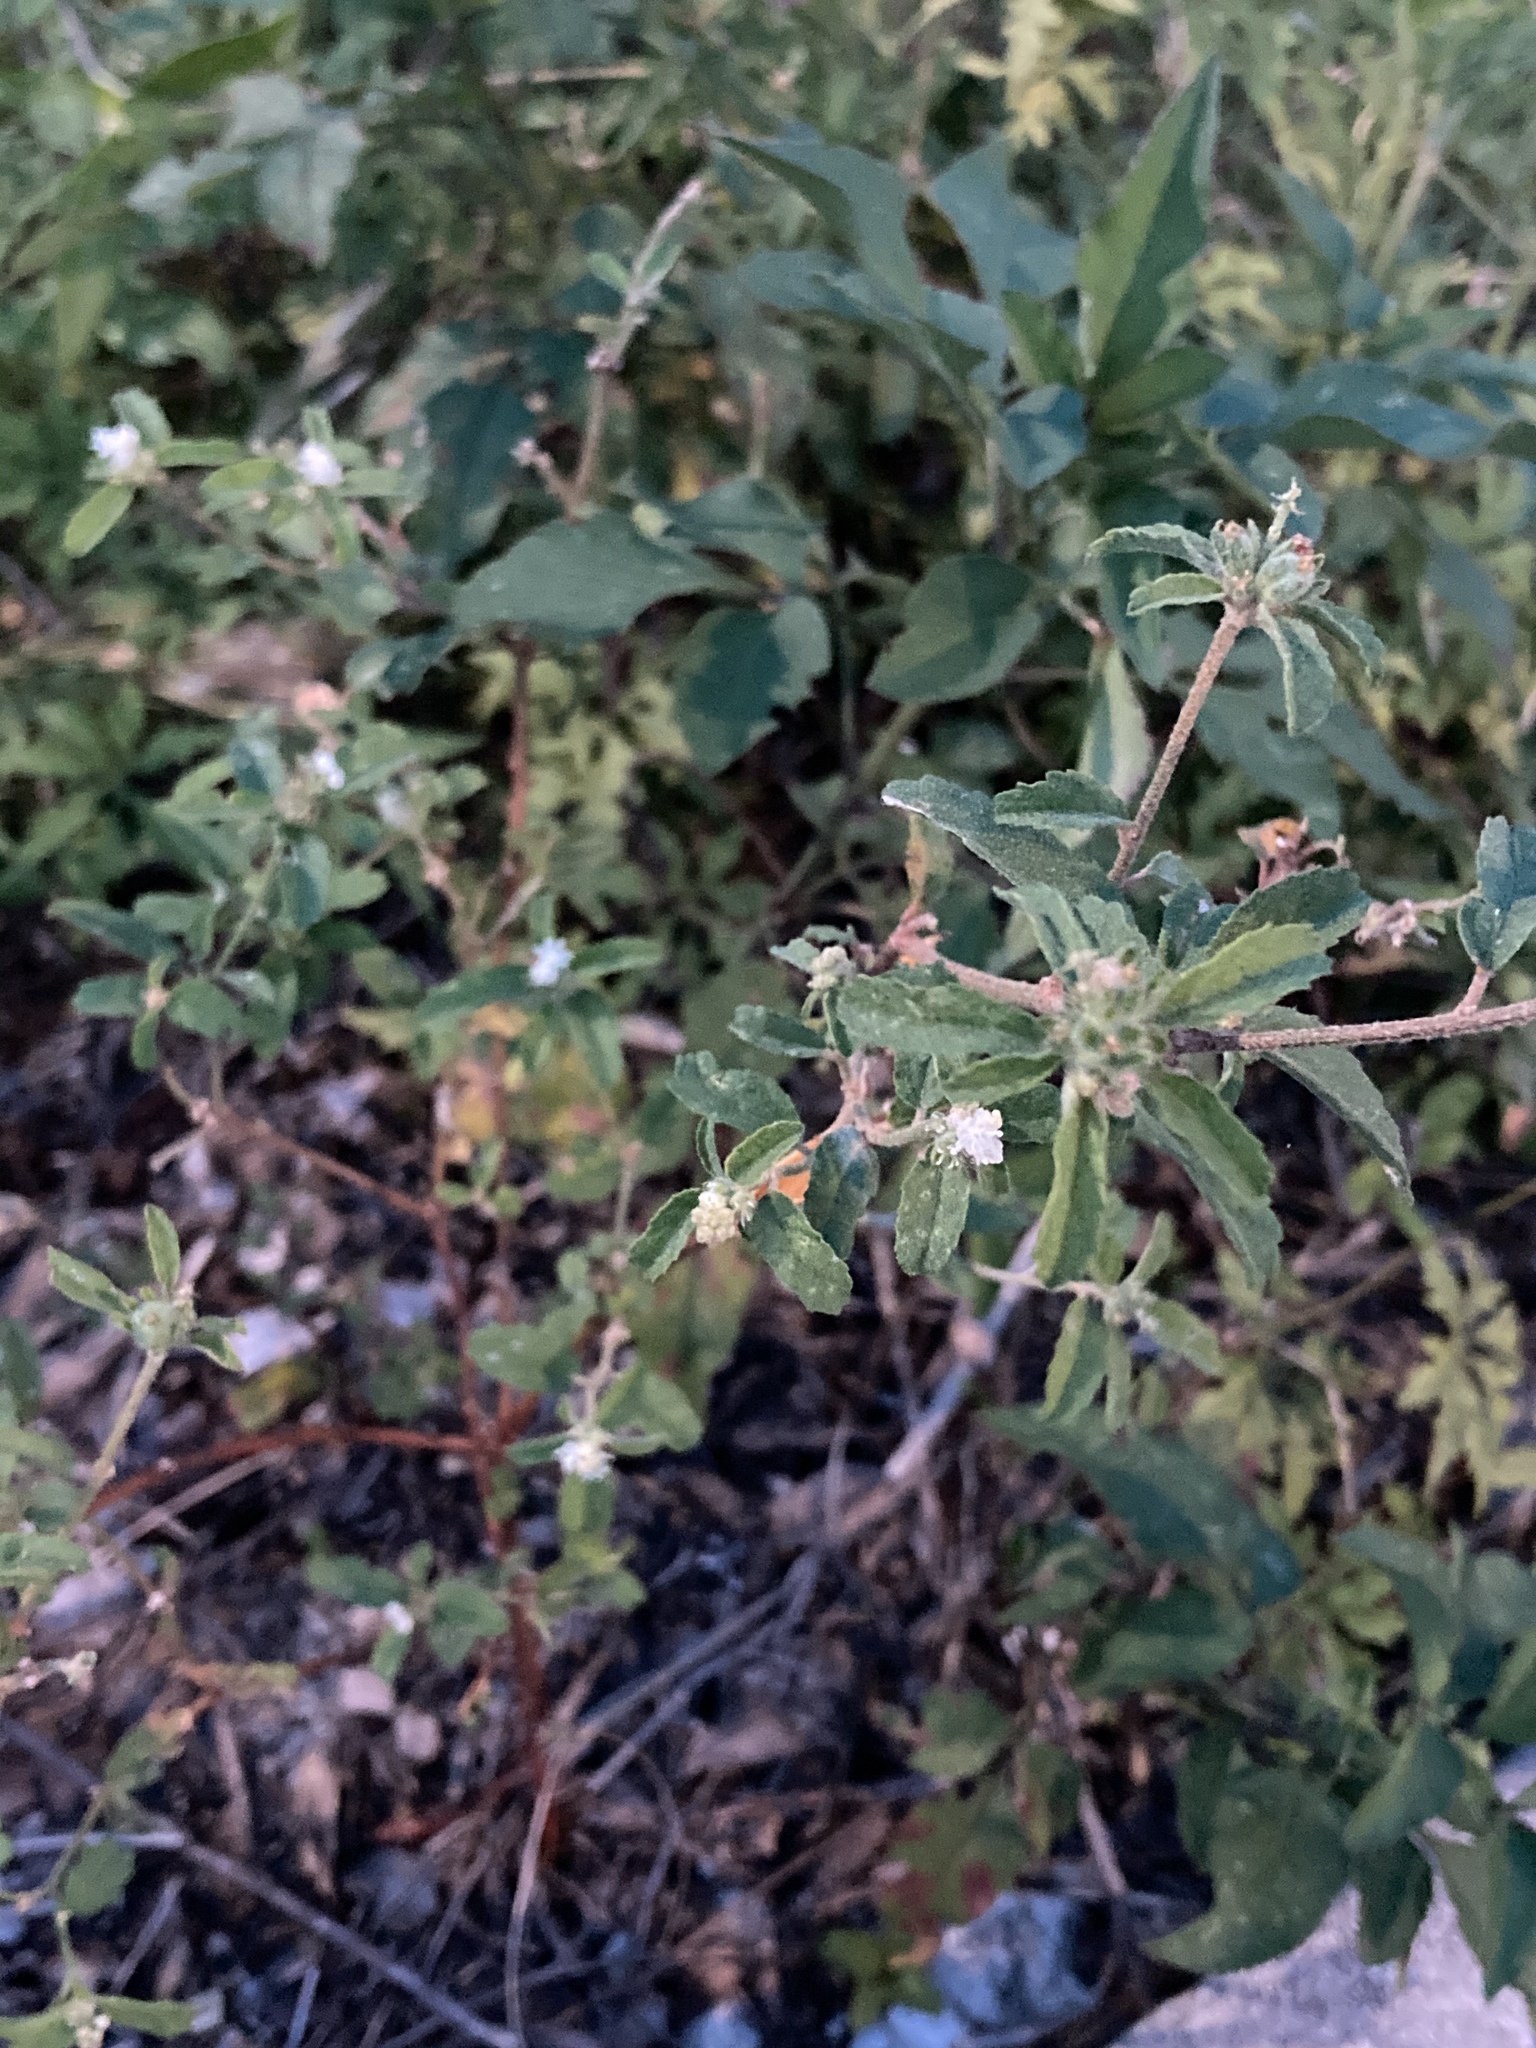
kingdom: Plantae
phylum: Tracheophyta
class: Magnoliopsida
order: Malpighiales
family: Euphorbiaceae
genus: Croton
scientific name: Croton glandulosus
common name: Tropic croton
